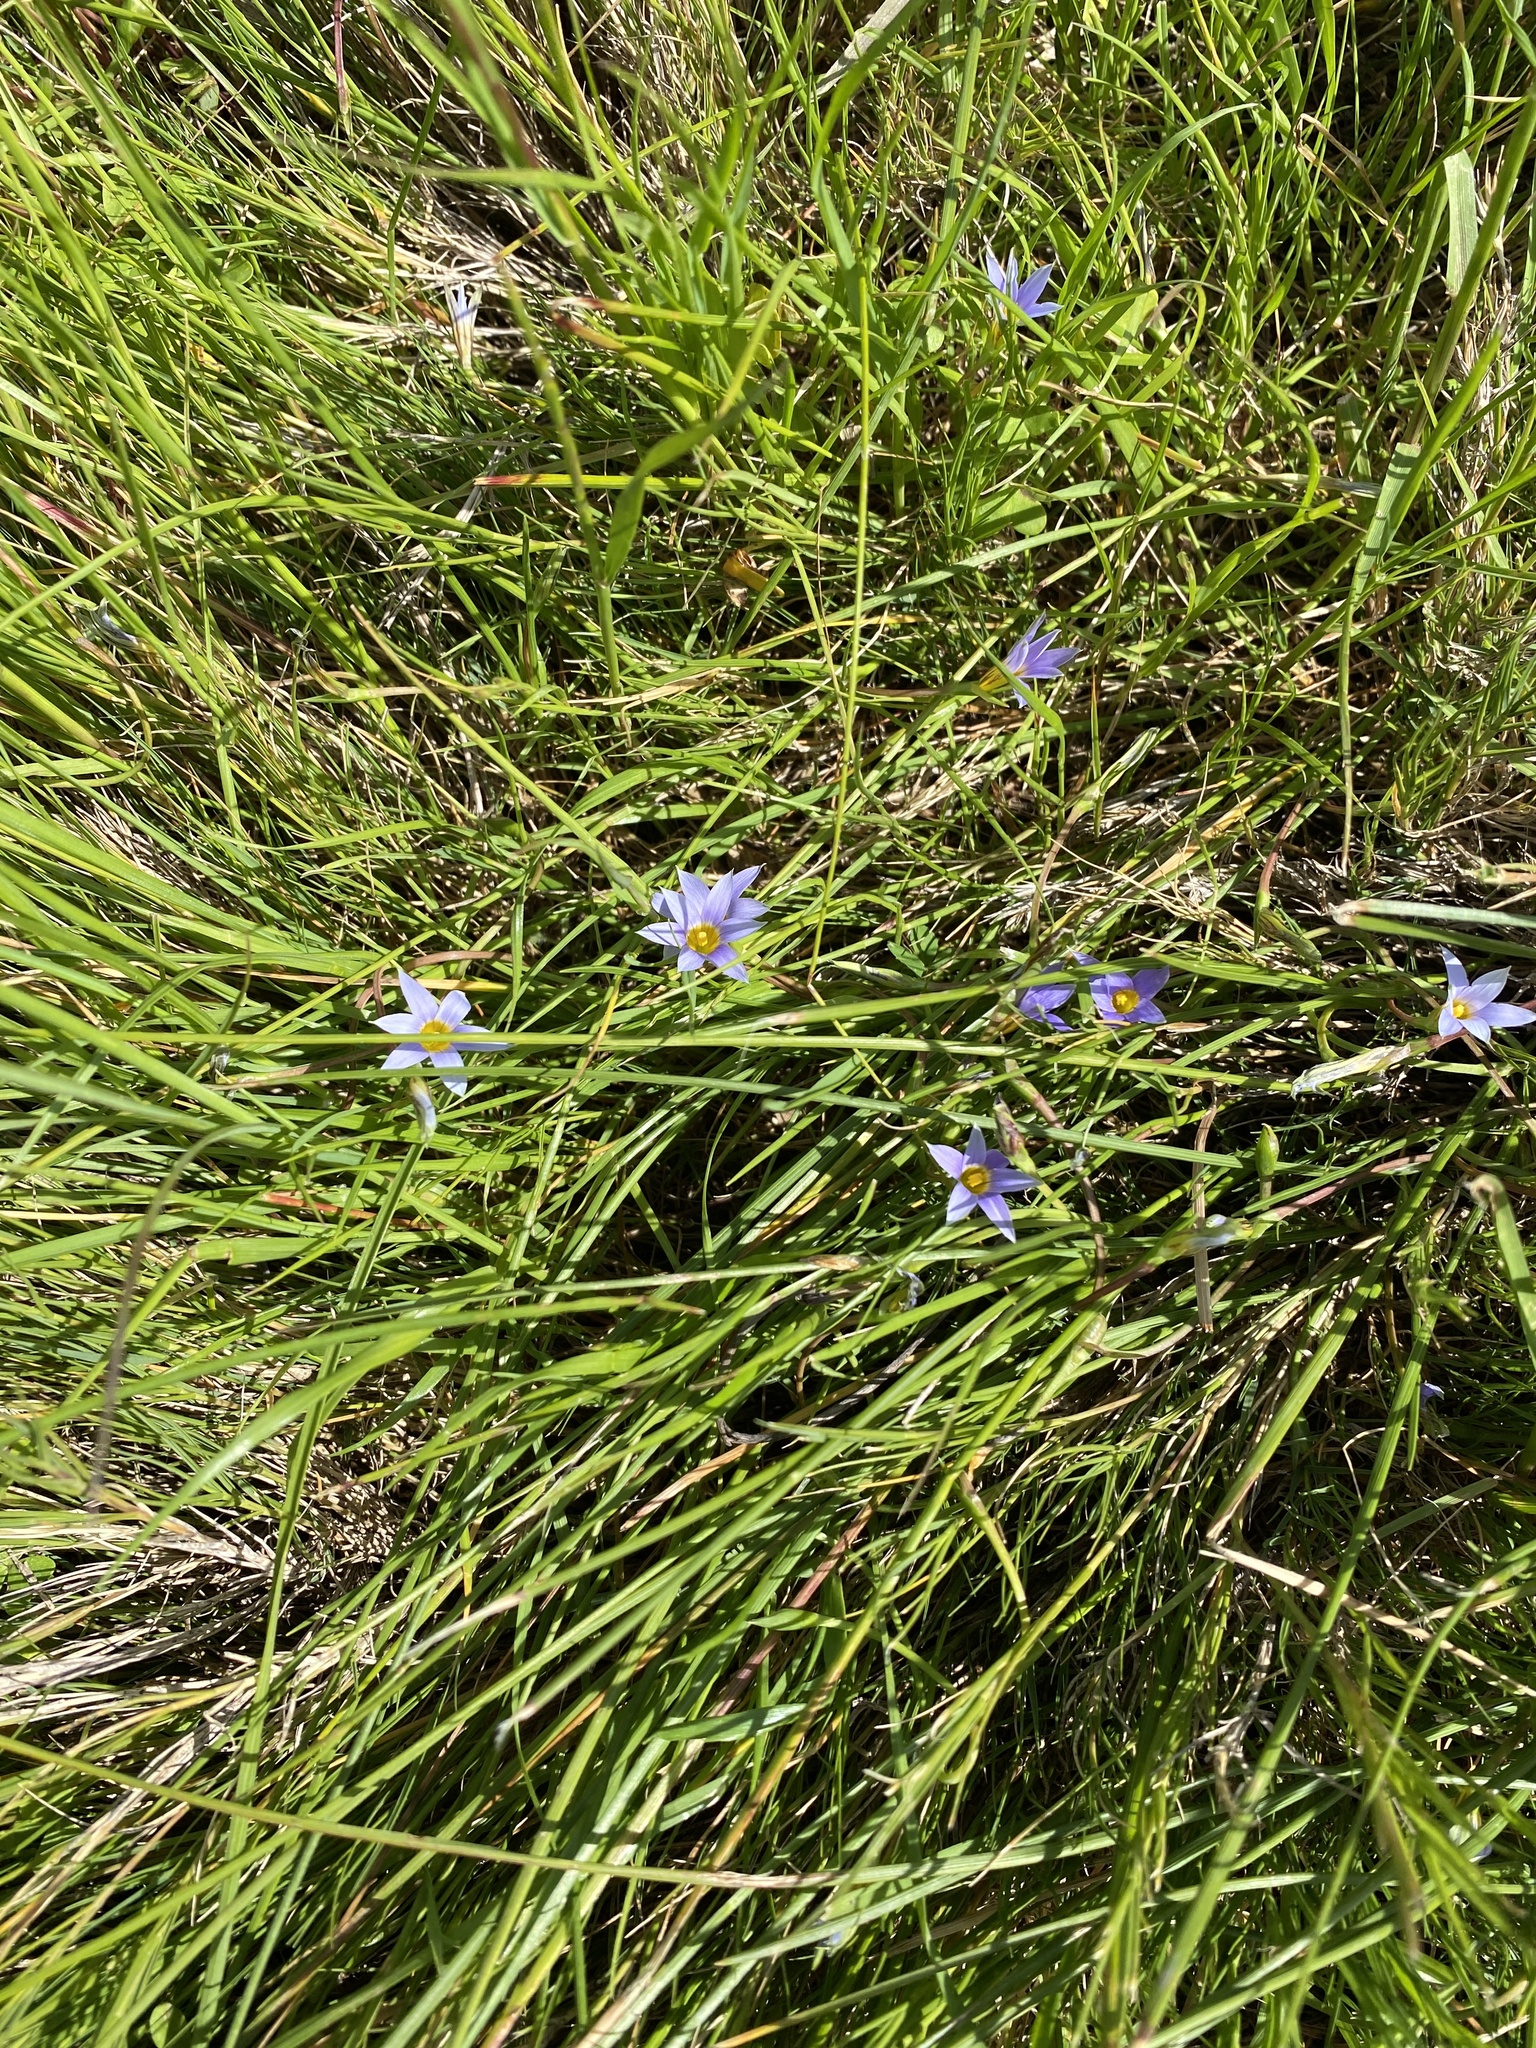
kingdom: Plantae
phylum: Tracheophyta
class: Liliopsida
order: Asparagales
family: Iridaceae
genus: Romulea
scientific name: Romulea tabularis
